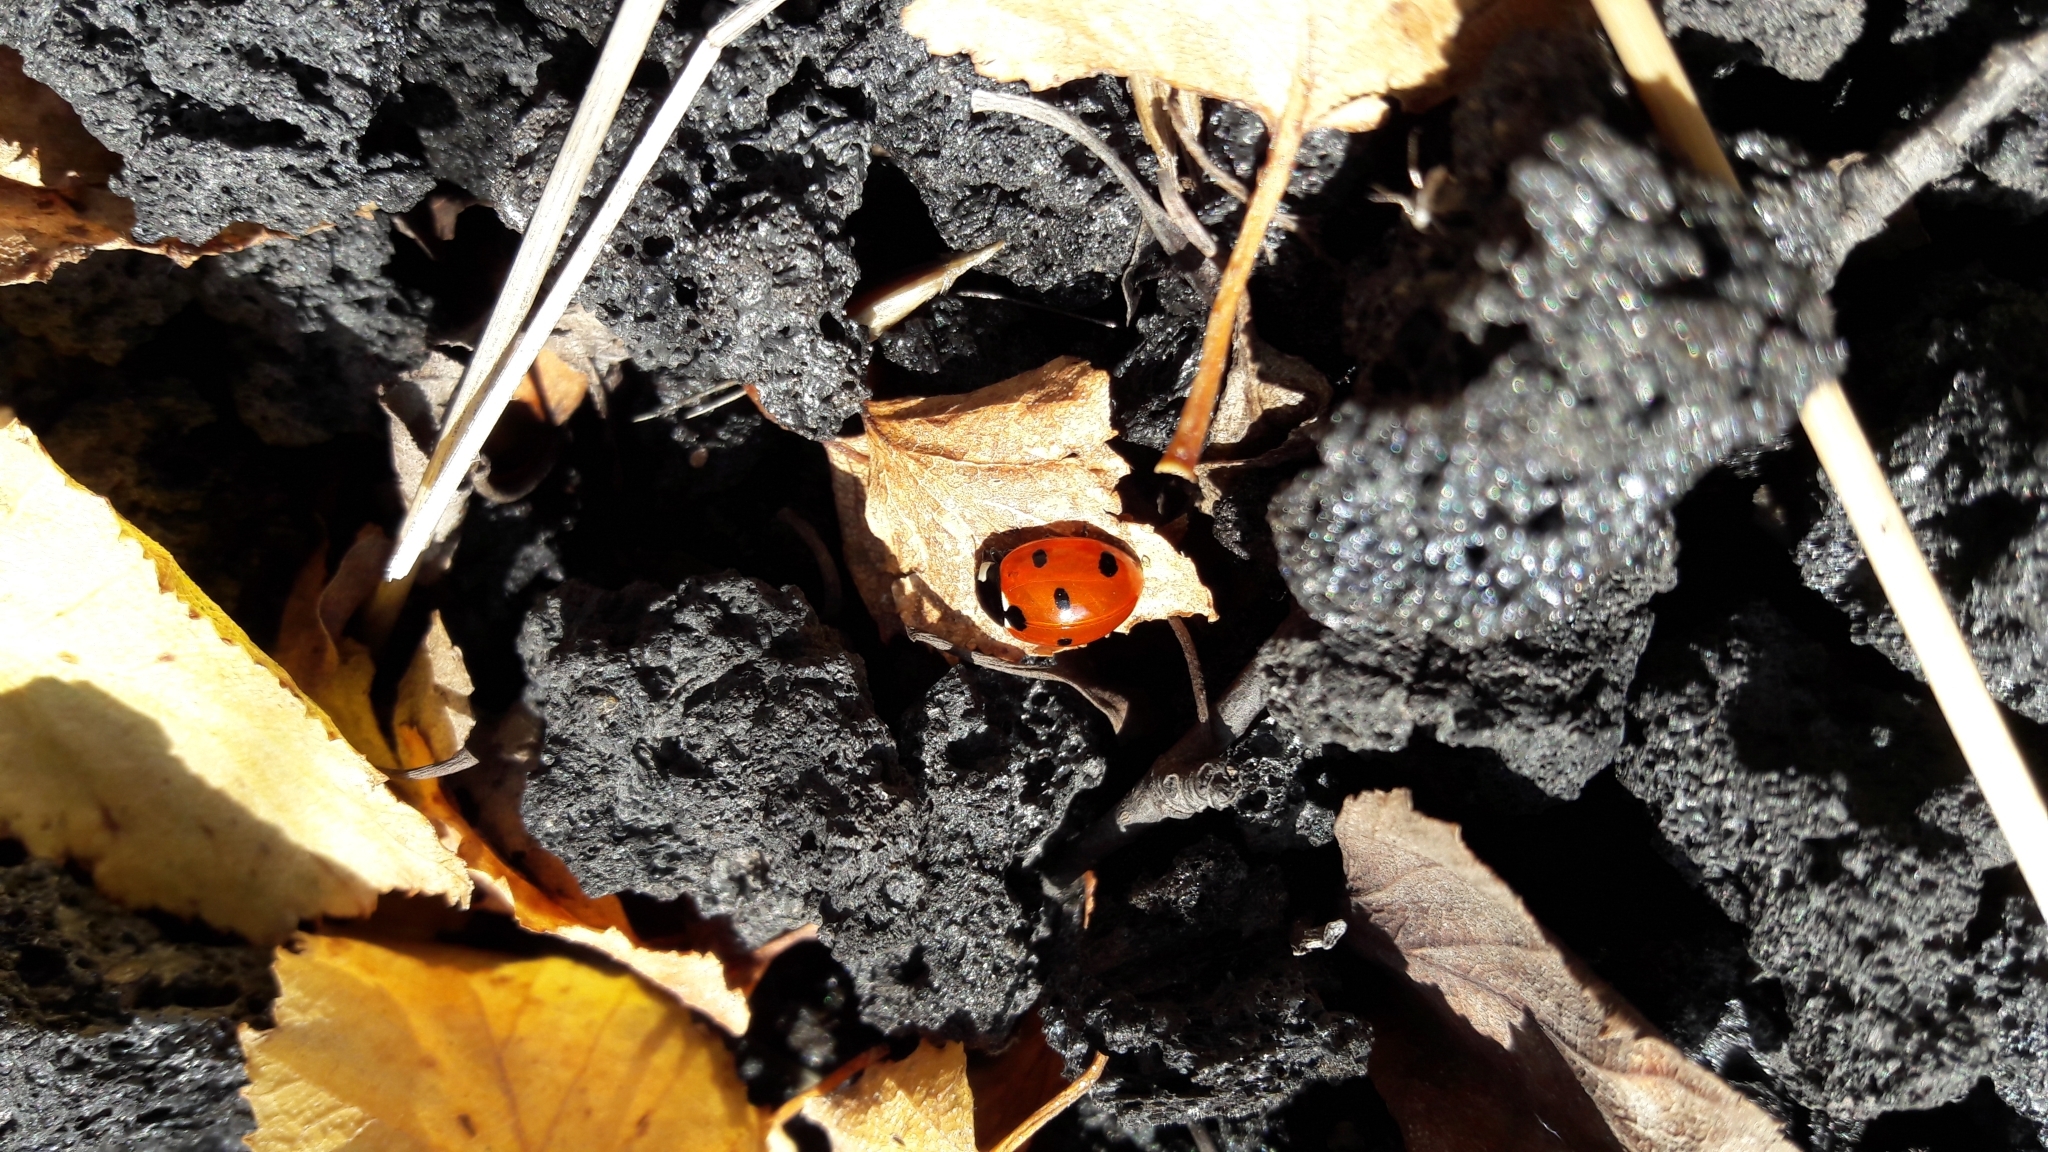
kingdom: Animalia
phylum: Arthropoda
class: Insecta
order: Coleoptera
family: Coccinellidae
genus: Coccinella
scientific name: Coccinella septempunctata
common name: Sevenspotted lady beetle
